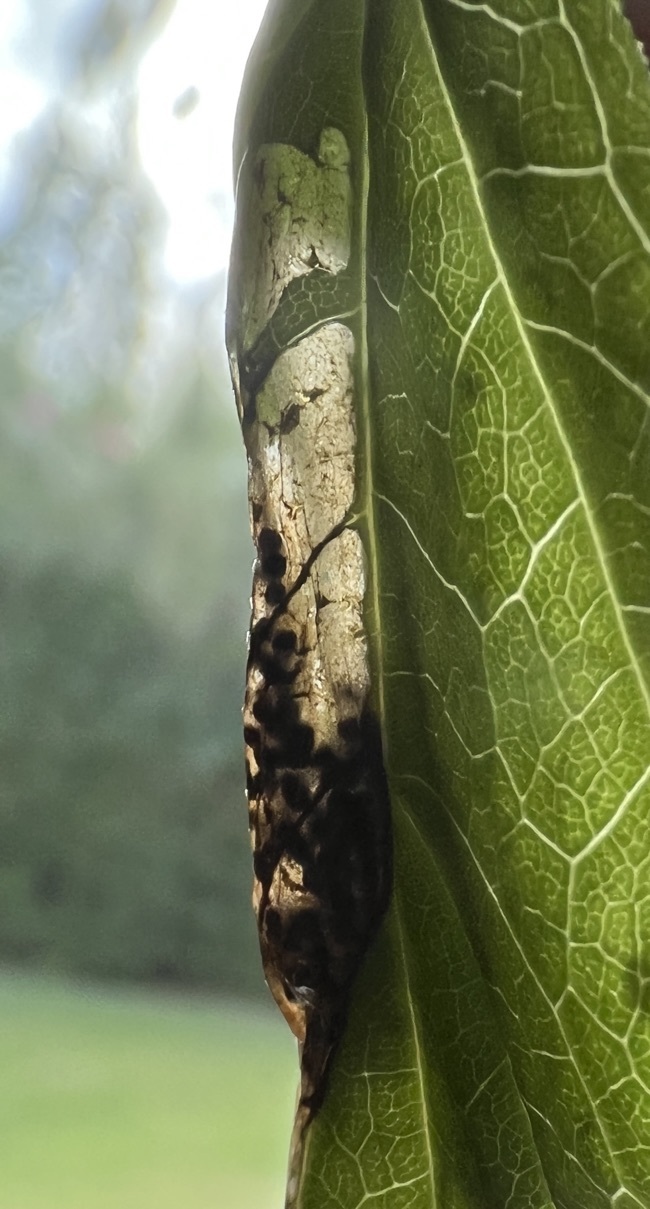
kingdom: Animalia
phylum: Arthropoda
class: Insecta
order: Lepidoptera
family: Crambidae
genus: Cryptobotys
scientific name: Cryptobotys zoilusalis
